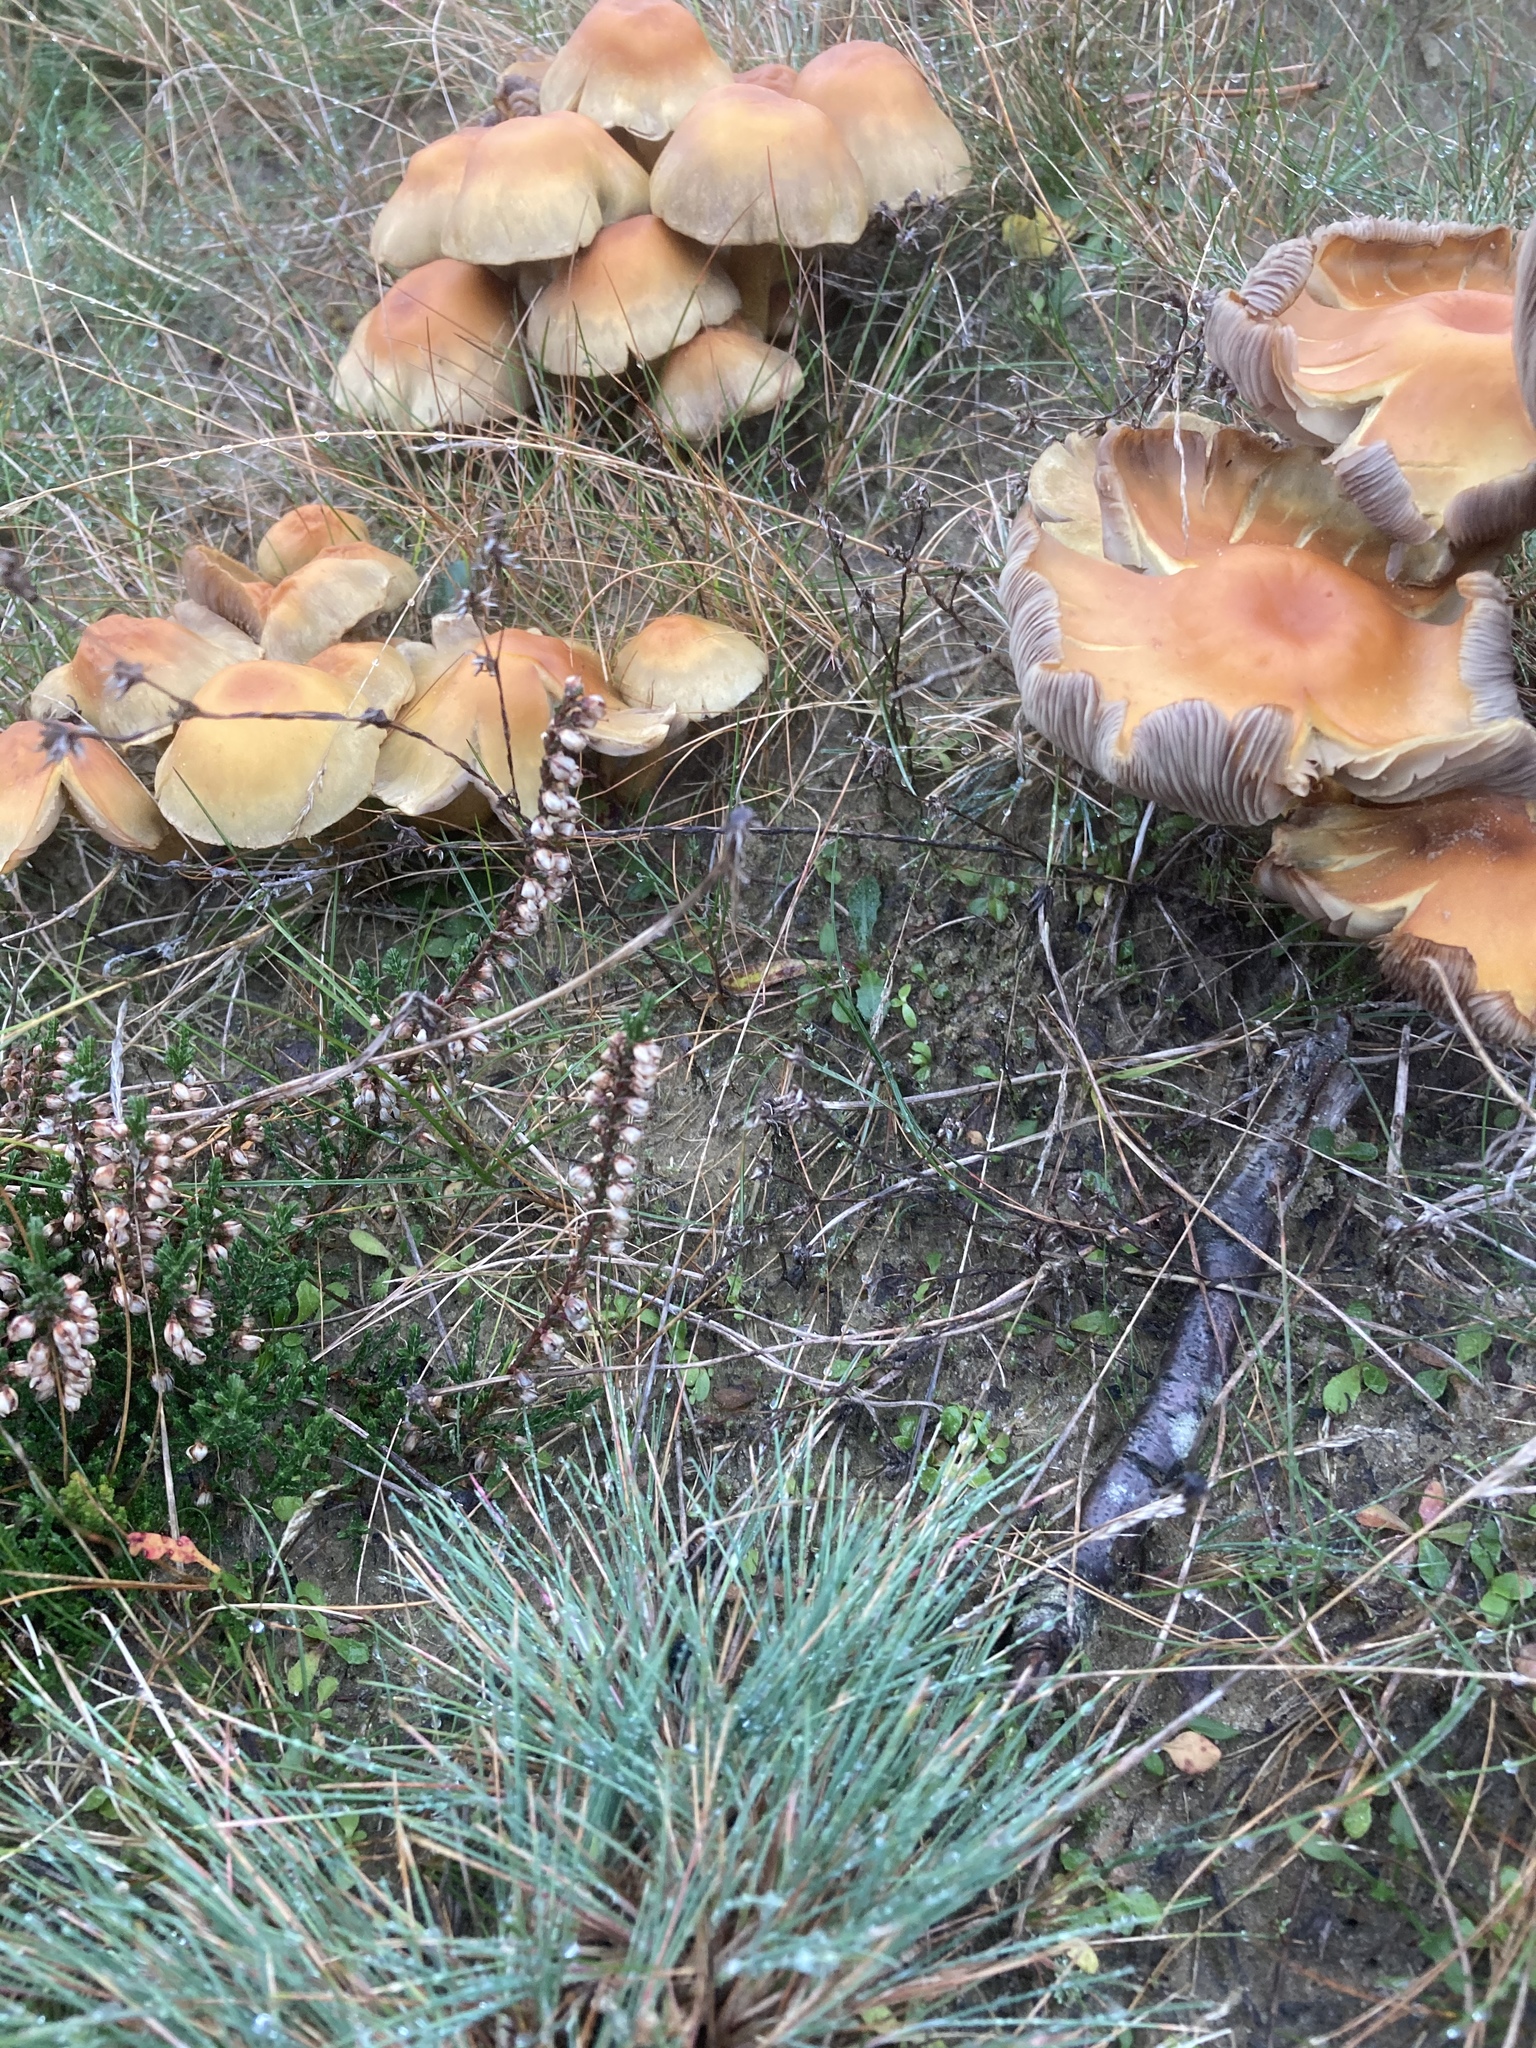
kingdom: Plantae
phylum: Tracheophyta
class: Liliopsida
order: Poales
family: Poaceae
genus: Corynephorus
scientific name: Corynephorus canescens
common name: Grey hair-grass
